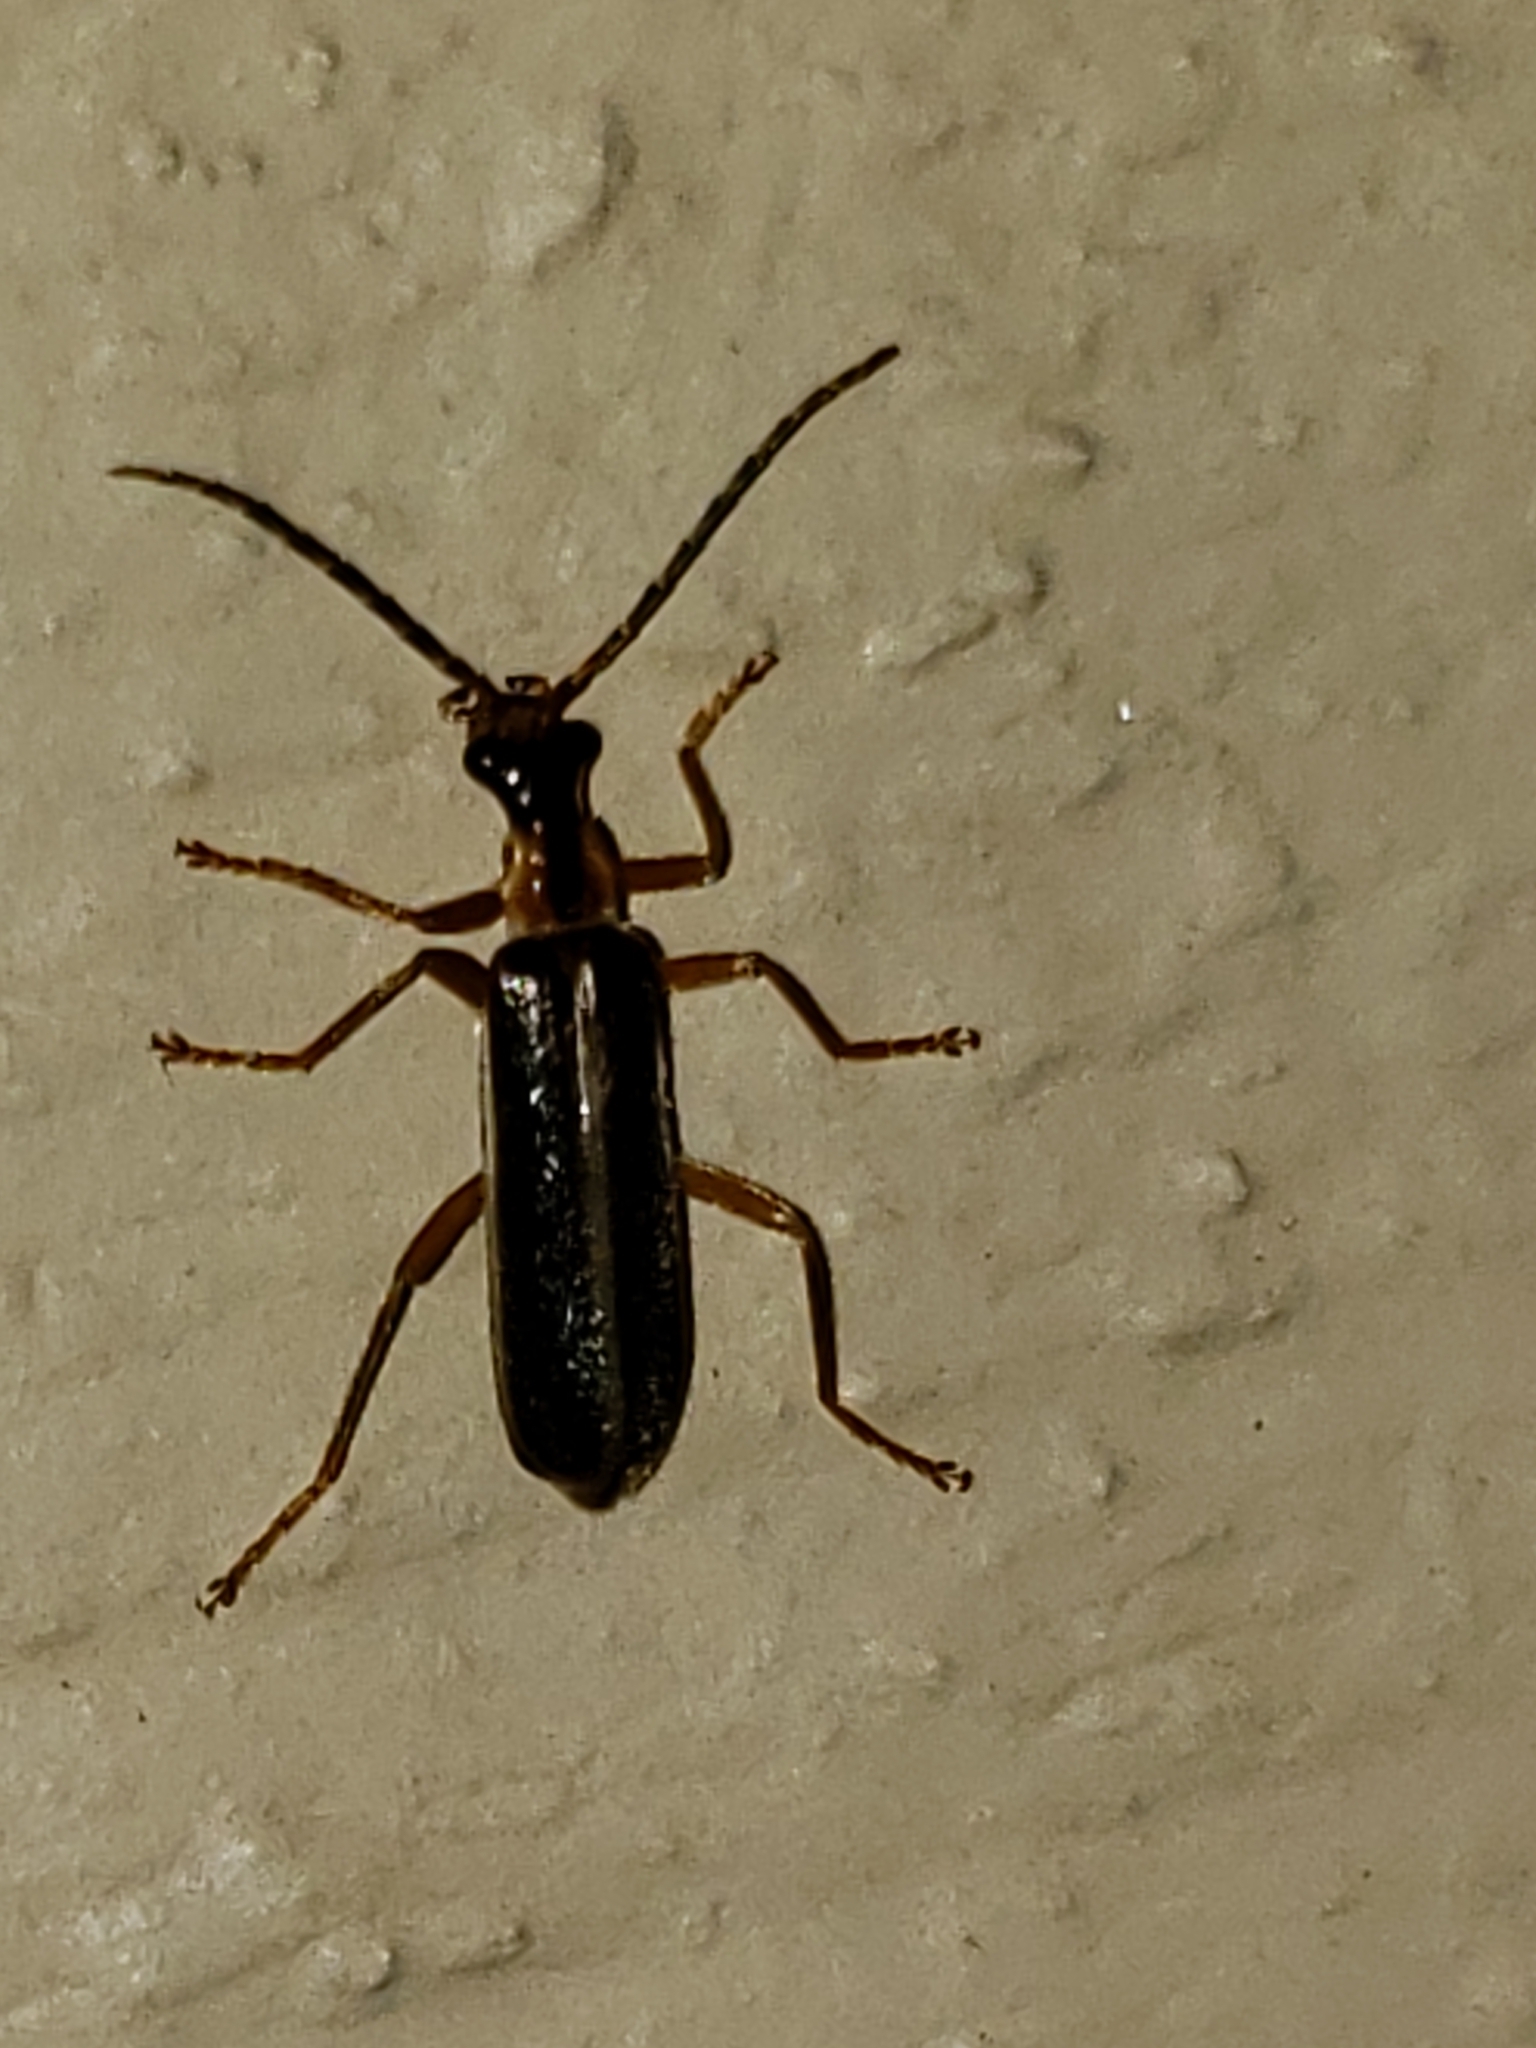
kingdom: Animalia
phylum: Arthropoda
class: Insecta
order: Coleoptera
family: Cantharidae
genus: Podabrus
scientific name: Podabrus brunnicollis
